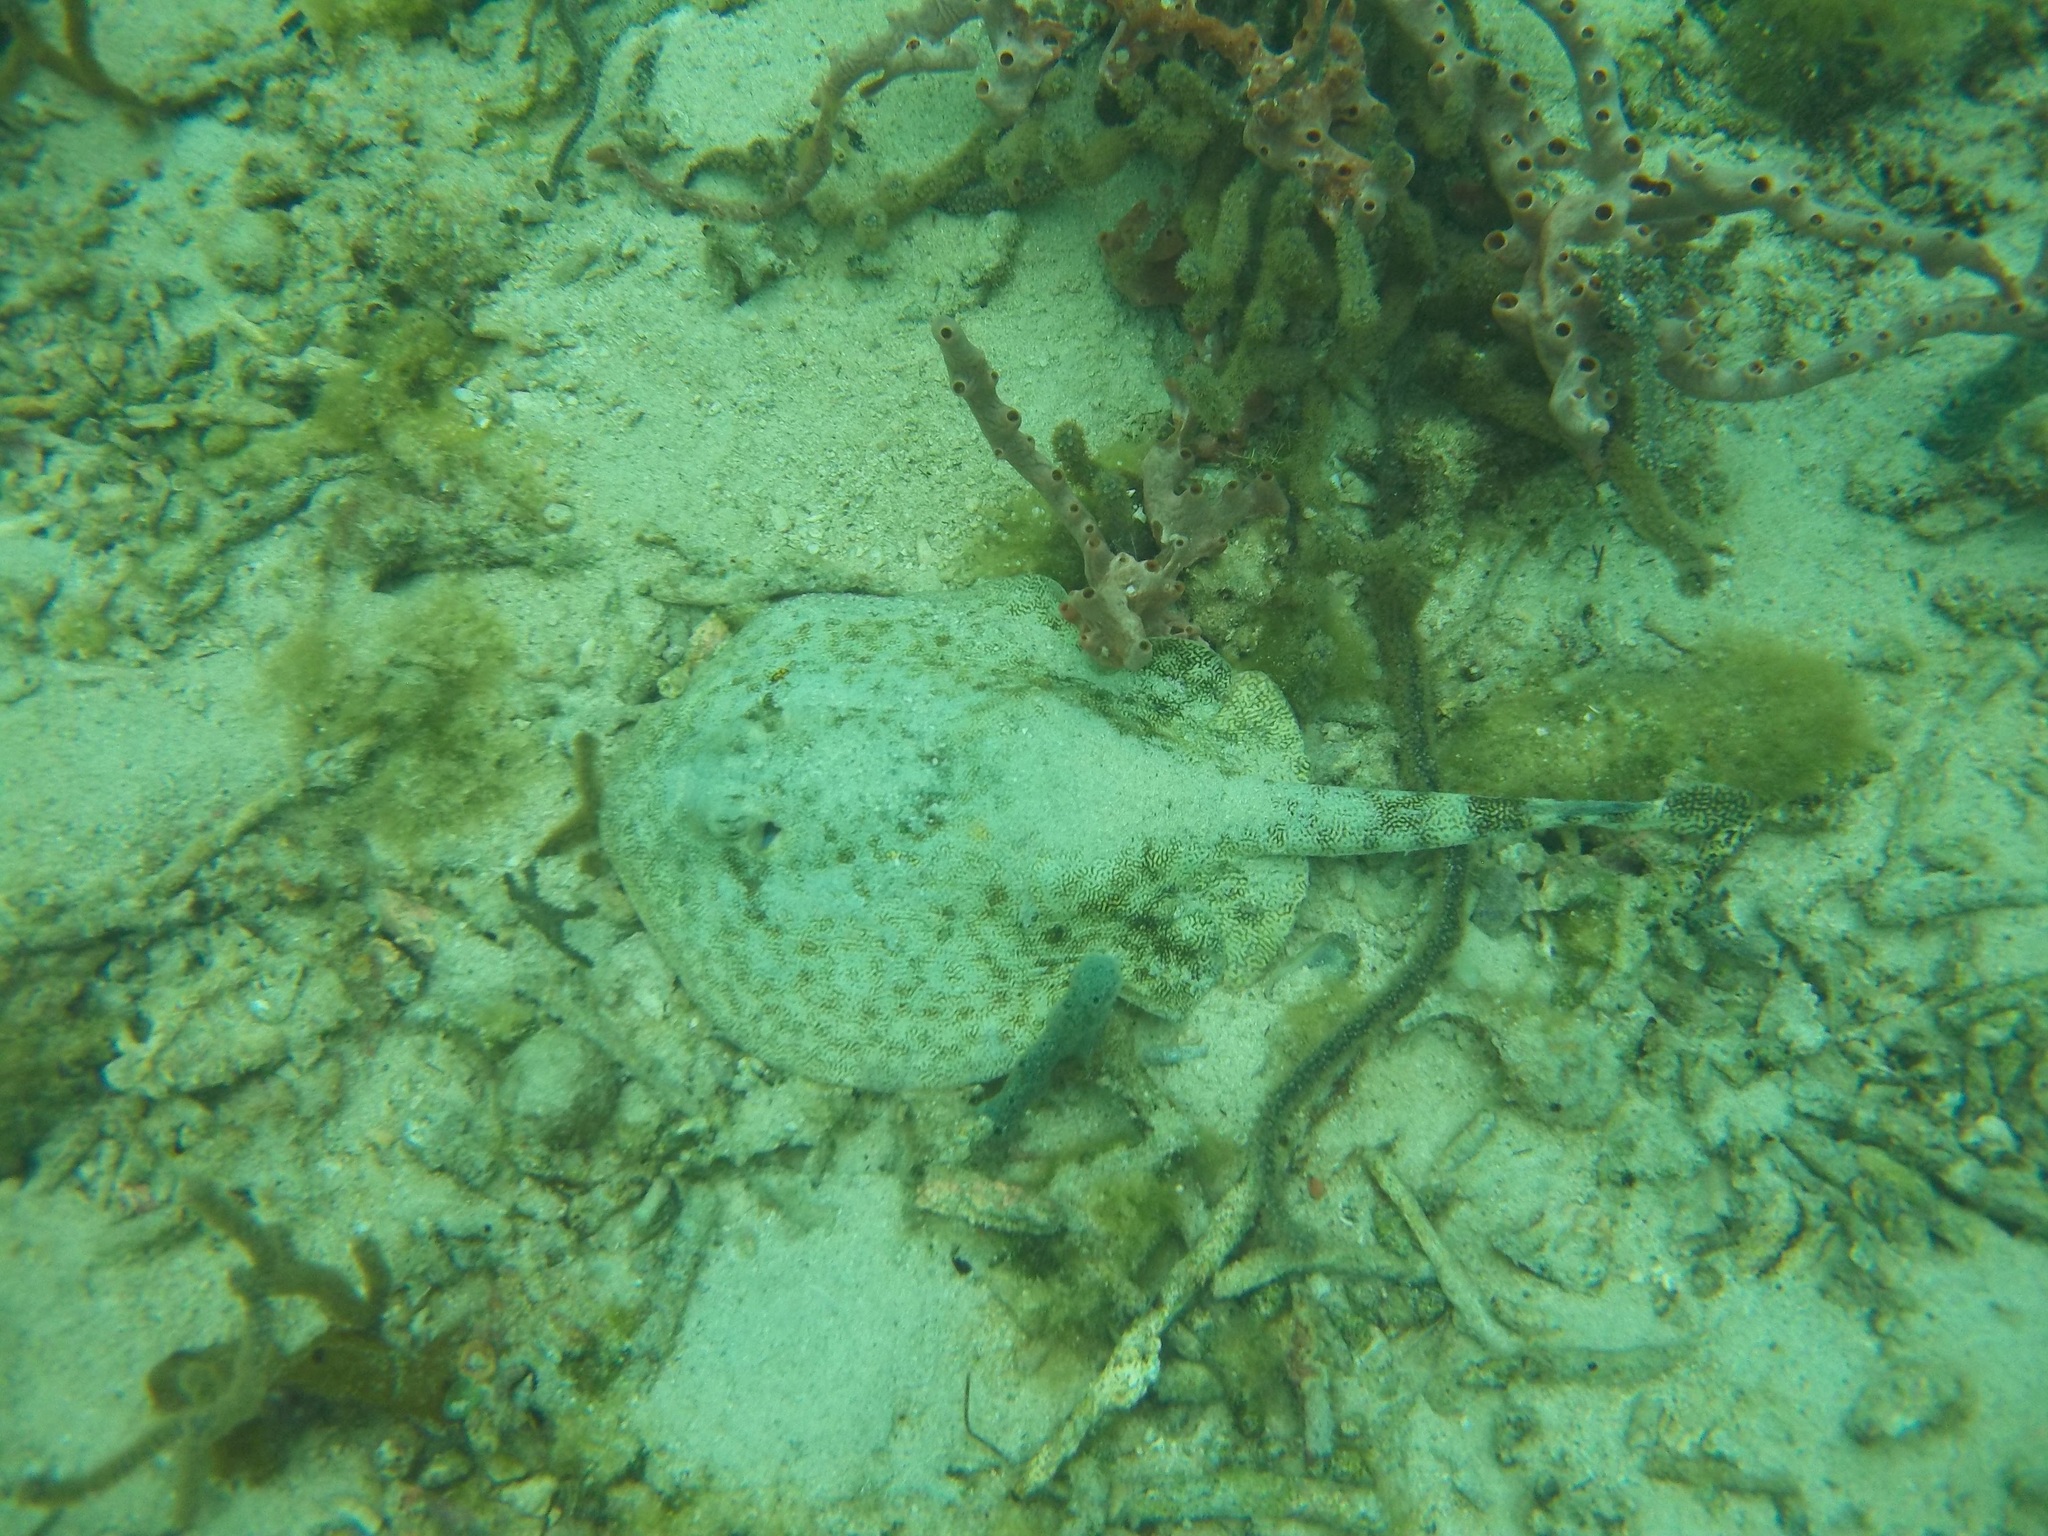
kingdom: Animalia
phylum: Chordata
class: Elasmobranchii
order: Myliobatiformes
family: Urotrygonidae
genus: Urobatis
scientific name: Urobatis jamaicensis
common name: Yellow stingray
